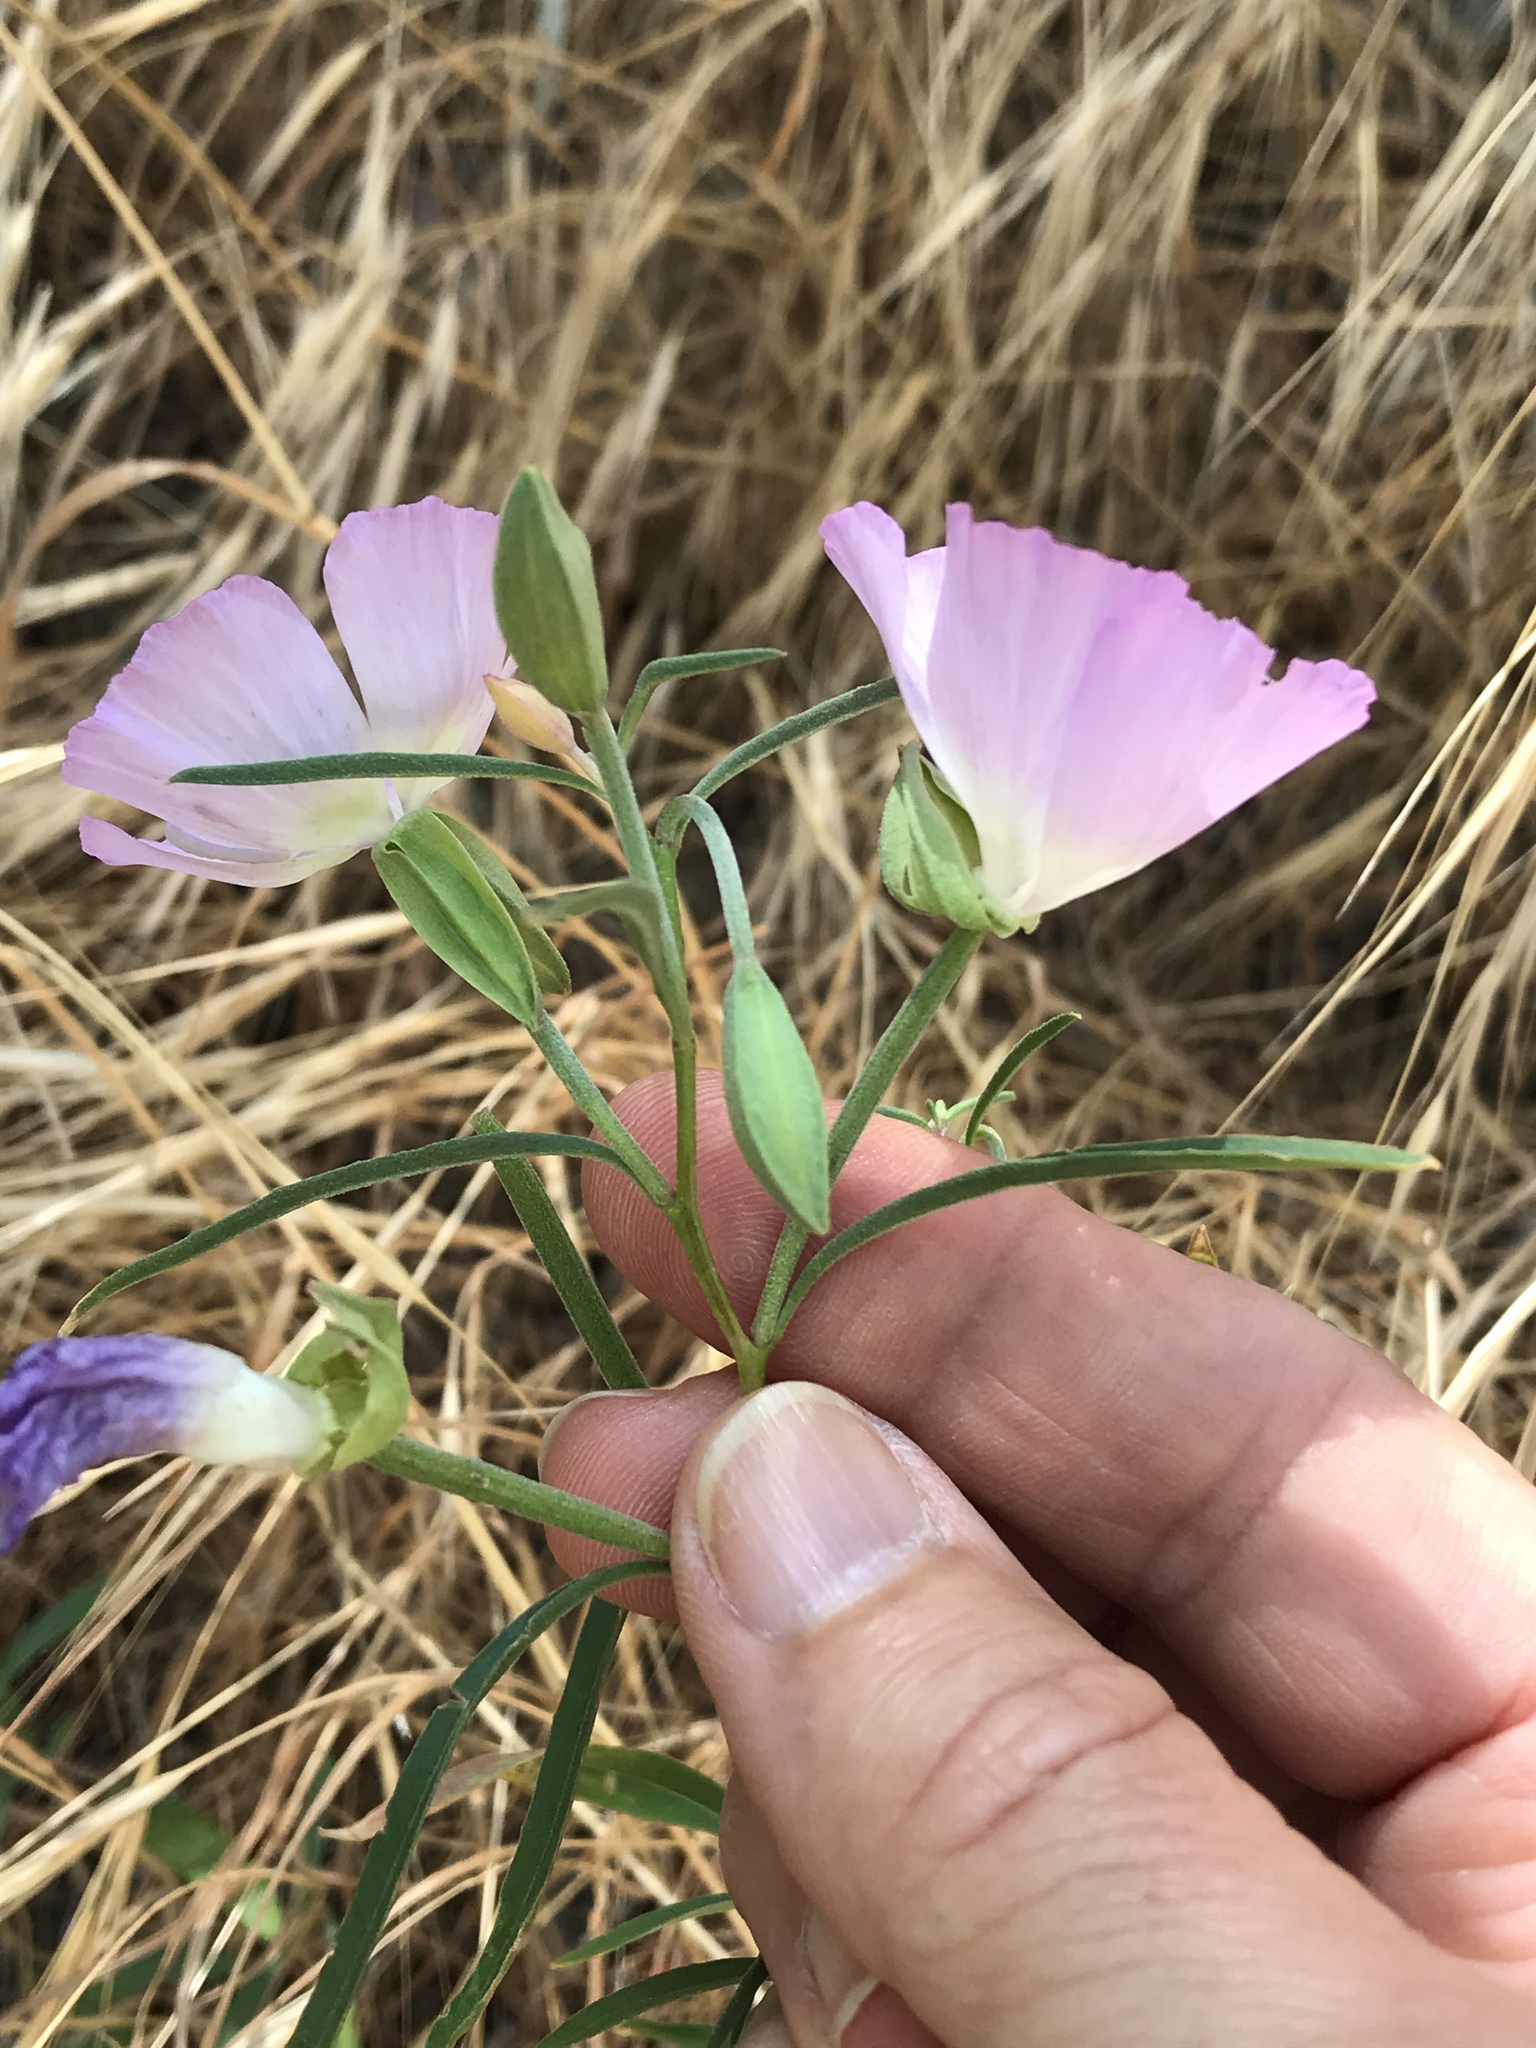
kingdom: Plantae
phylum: Tracheophyta
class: Magnoliopsida
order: Myrtales
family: Onagraceae
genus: Clarkia
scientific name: Clarkia bottae
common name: Punch-bowl godetia
